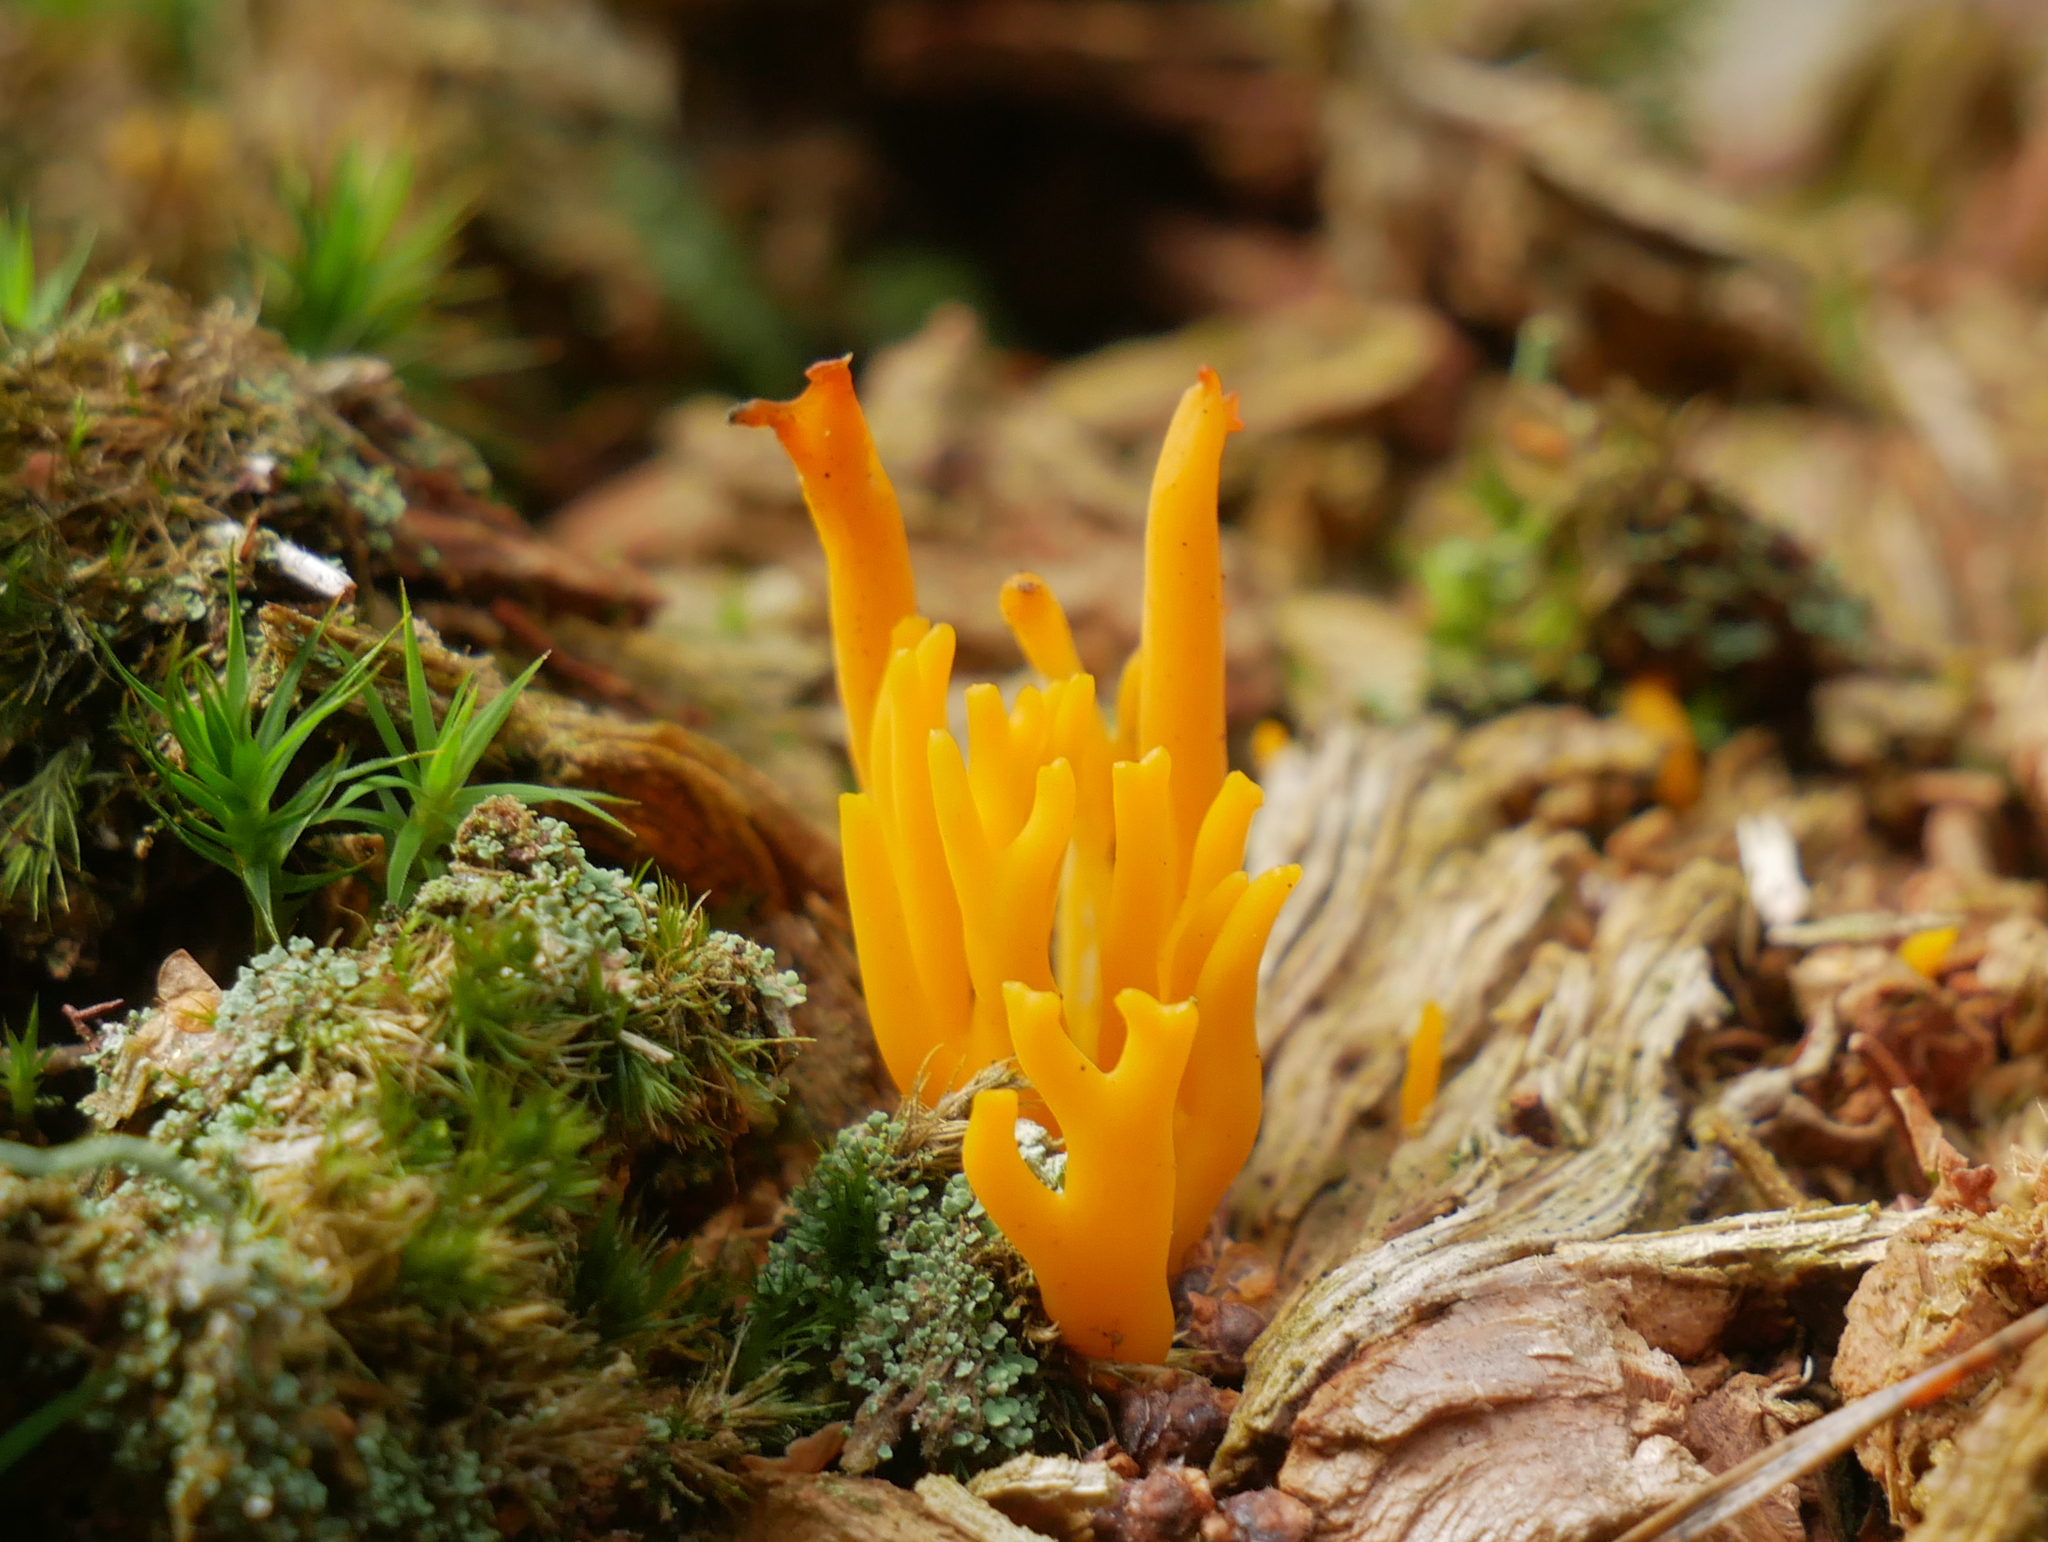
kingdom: Fungi
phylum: Basidiomycota
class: Dacrymycetes
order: Dacrymycetales
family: Dacrymycetaceae
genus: Calocera
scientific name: Calocera viscosa
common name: Yellow stagshorn
